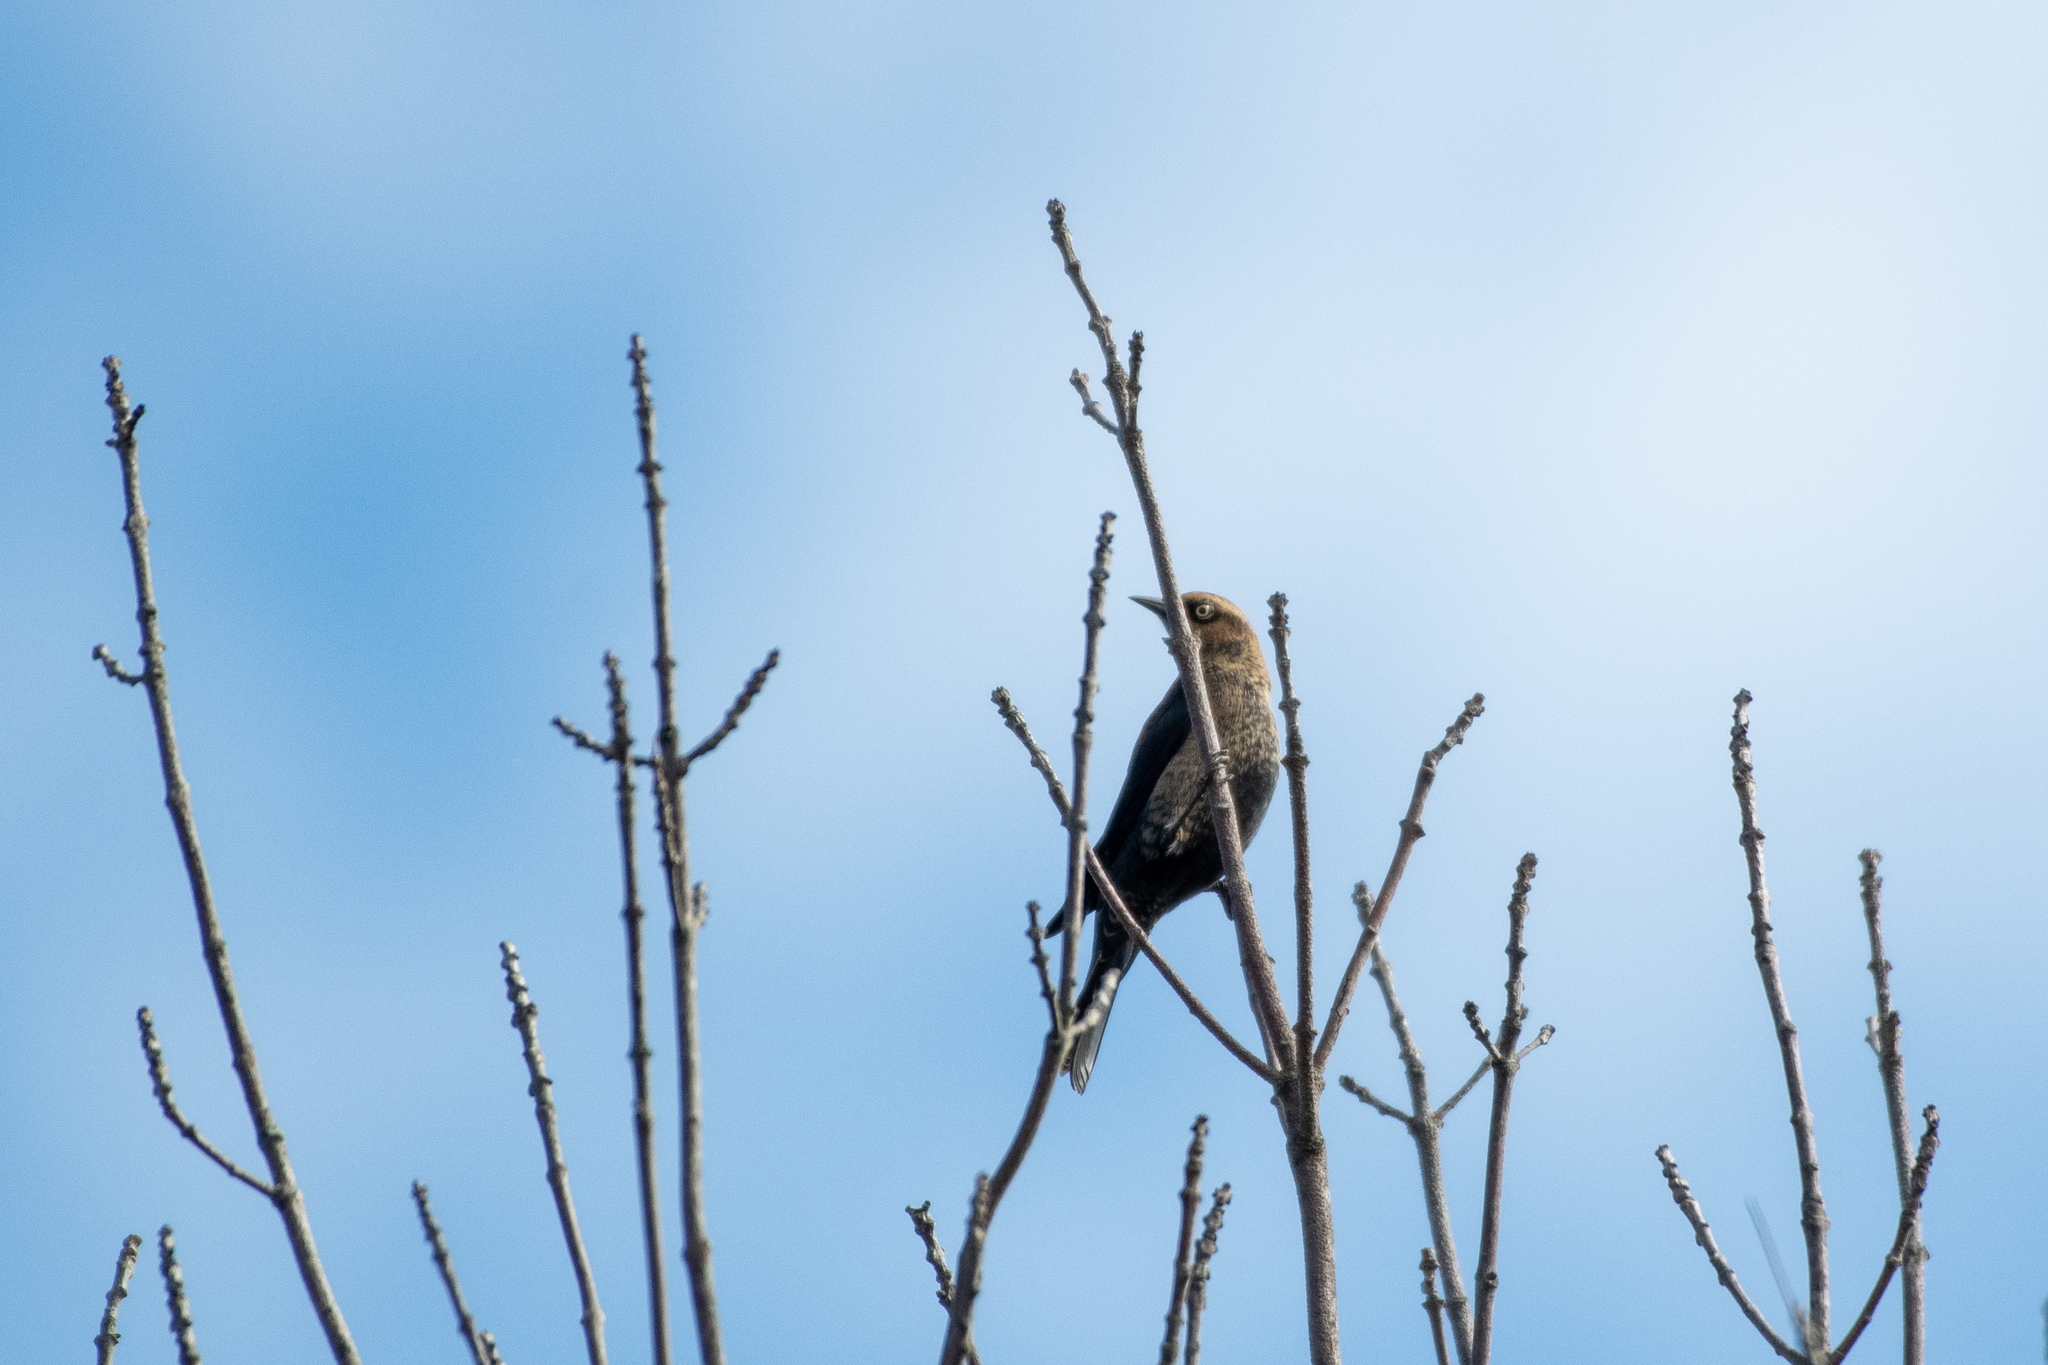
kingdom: Animalia
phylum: Chordata
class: Aves
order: Passeriformes
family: Icteridae
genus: Euphagus
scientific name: Euphagus carolinus
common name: Rusty blackbird
